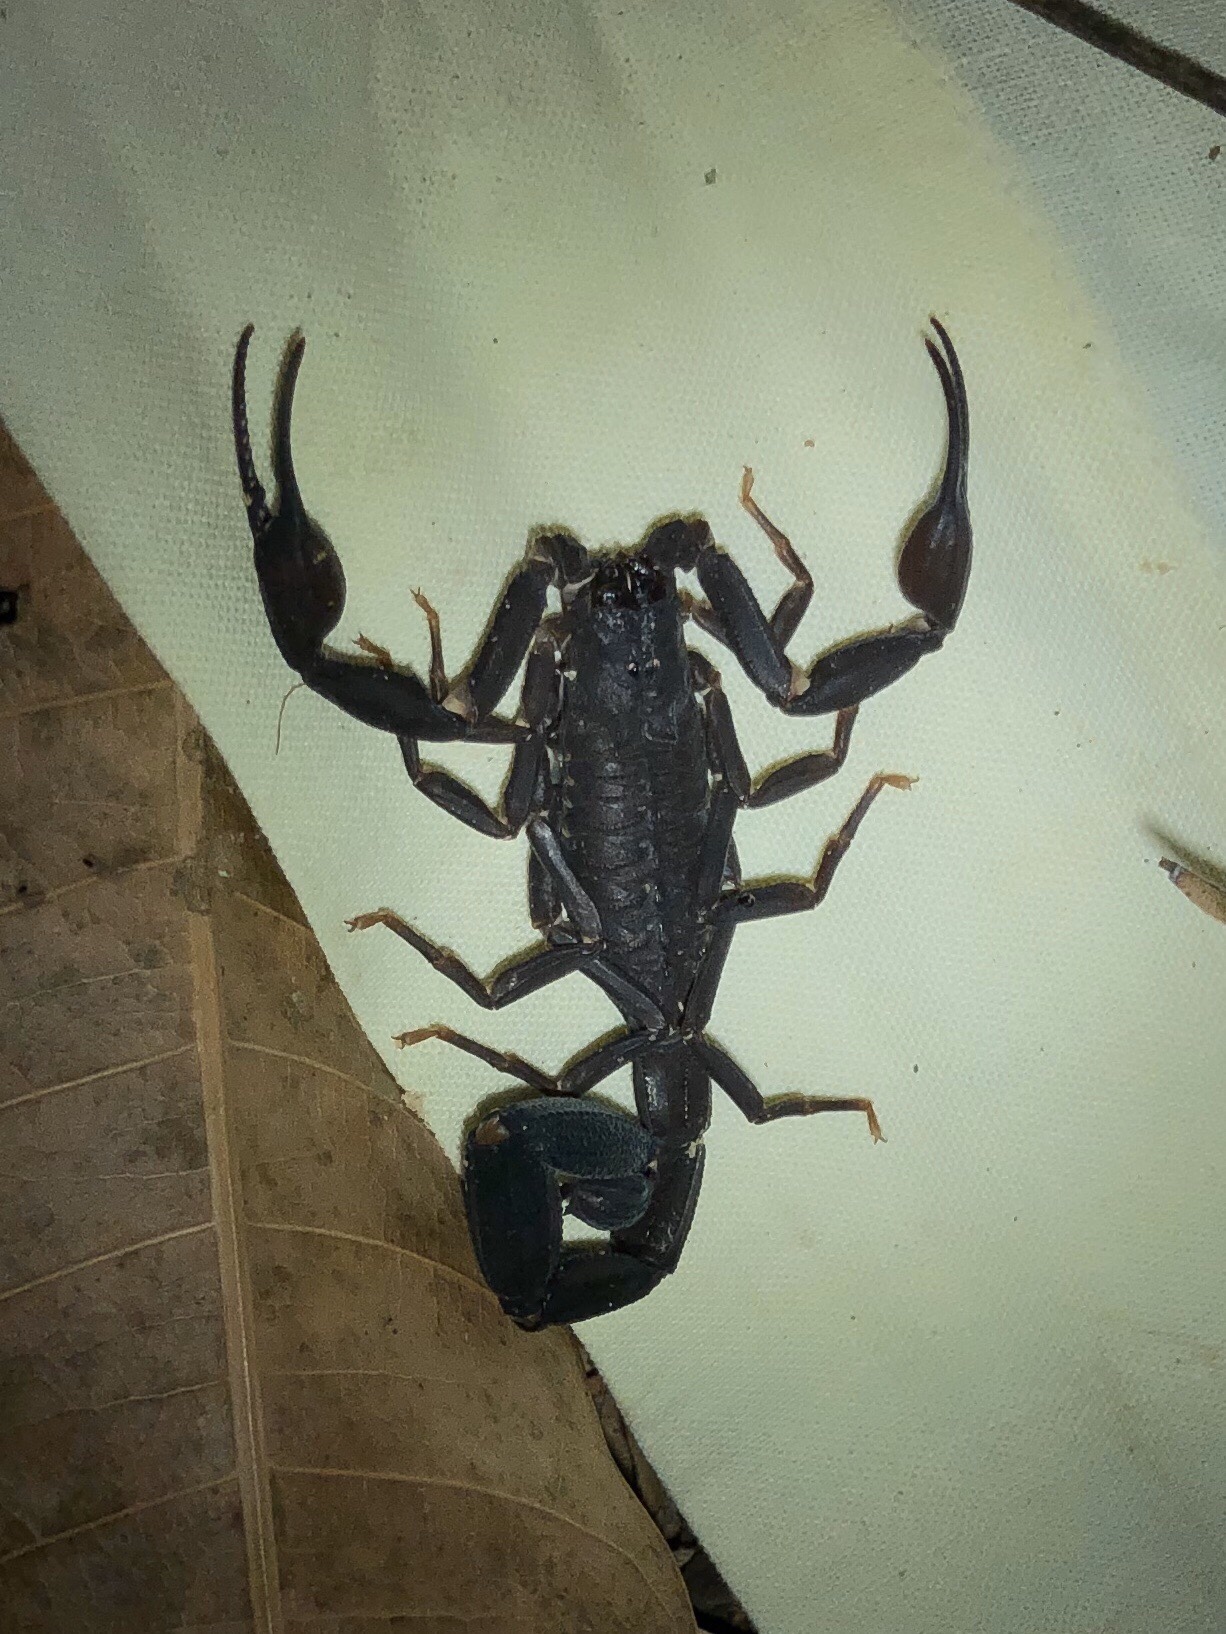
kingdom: Animalia
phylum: Arthropoda
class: Arachnida
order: Scorpiones
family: Buthidae
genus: Tityus
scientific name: Tityus jaimei
